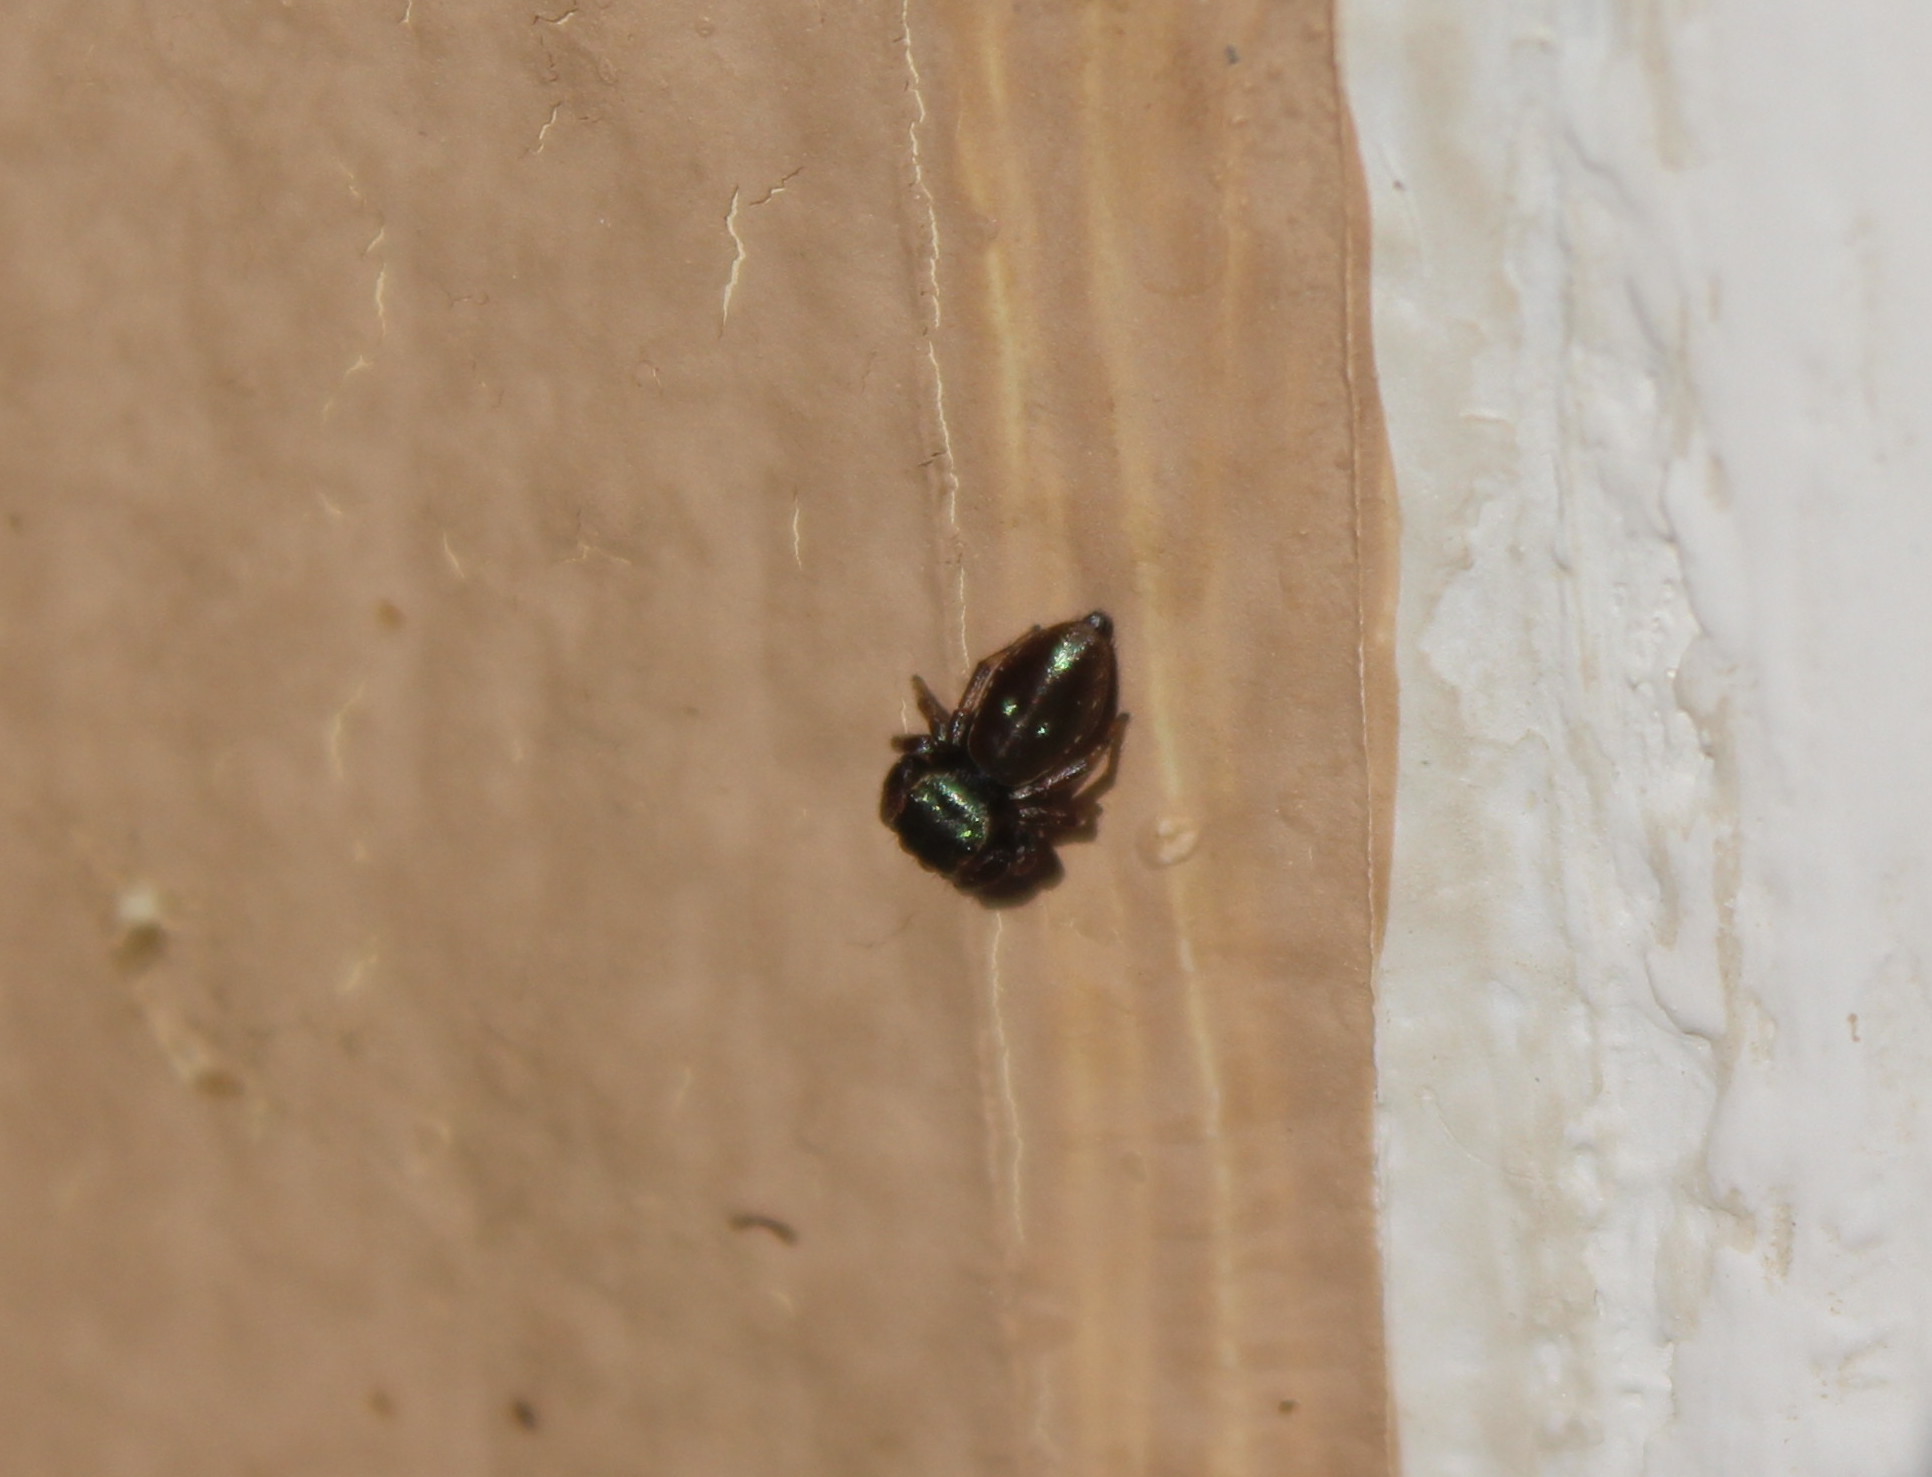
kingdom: Animalia
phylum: Arthropoda
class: Arachnida
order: Araneae
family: Salticidae
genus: Messua
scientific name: Messua limbata
